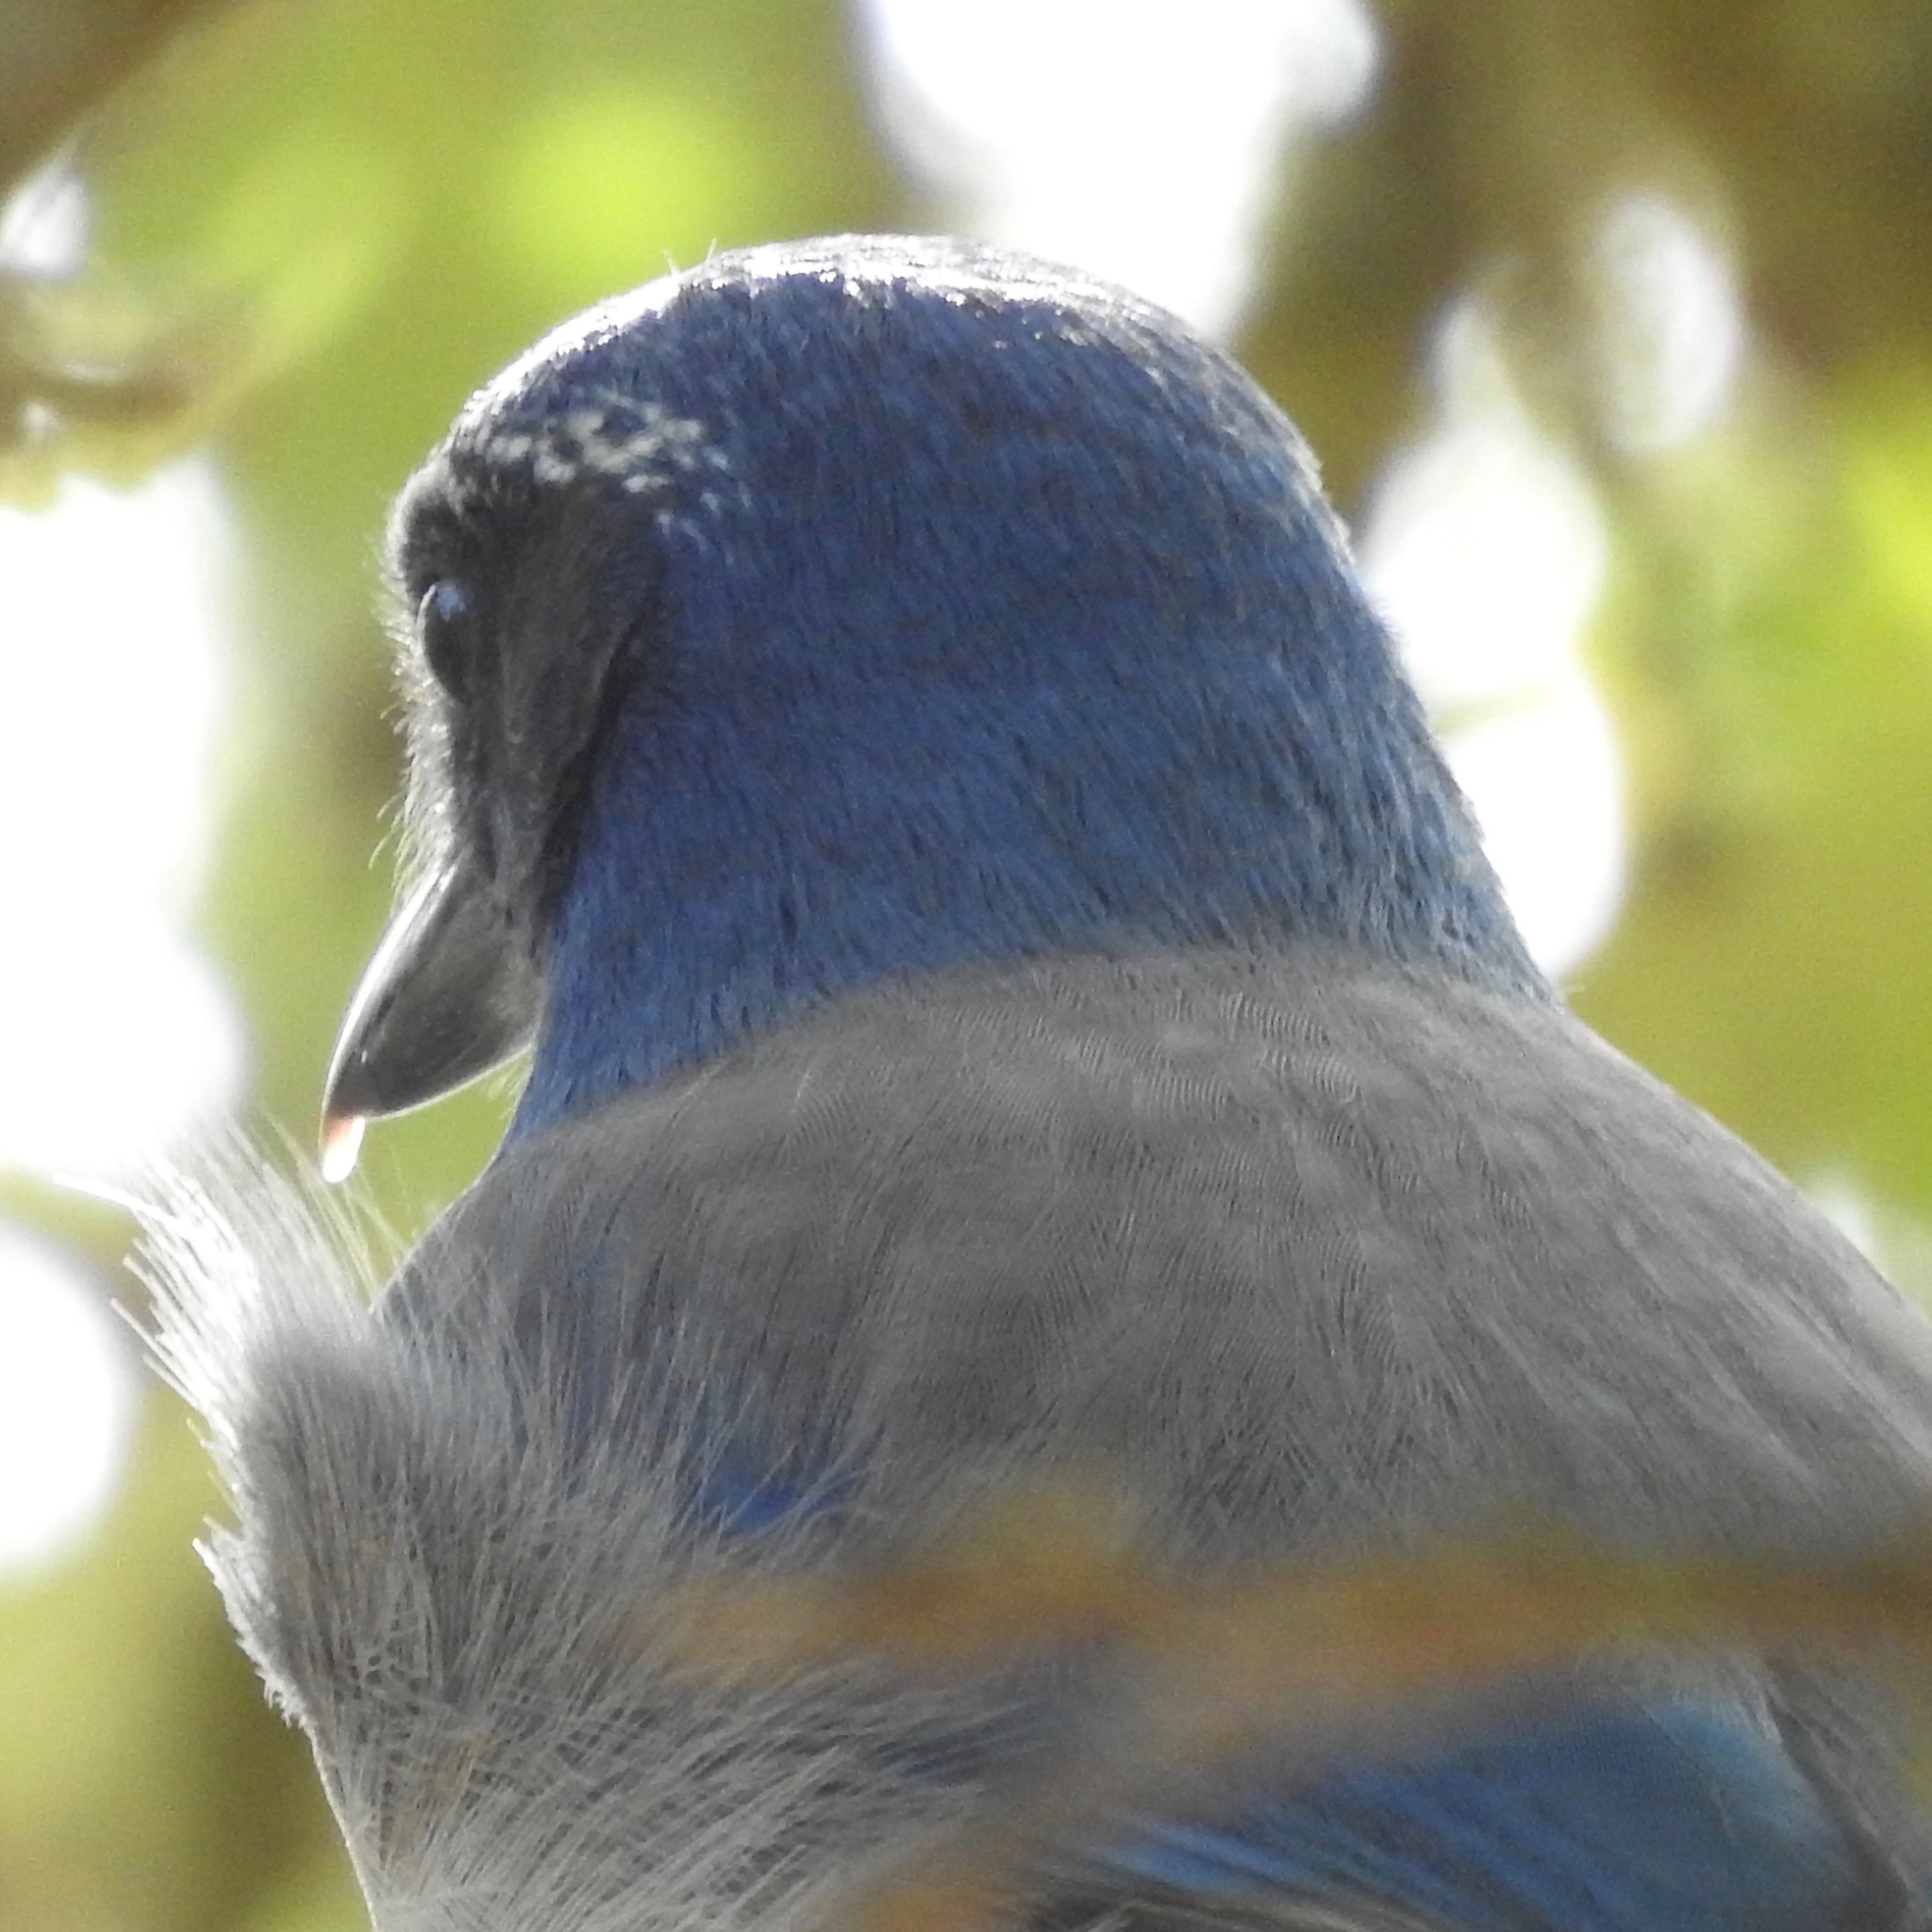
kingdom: Animalia
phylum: Chordata
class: Aves
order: Passeriformes
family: Corvidae
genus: Aphelocoma
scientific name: Aphelocoma californica
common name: California scrub-jay
